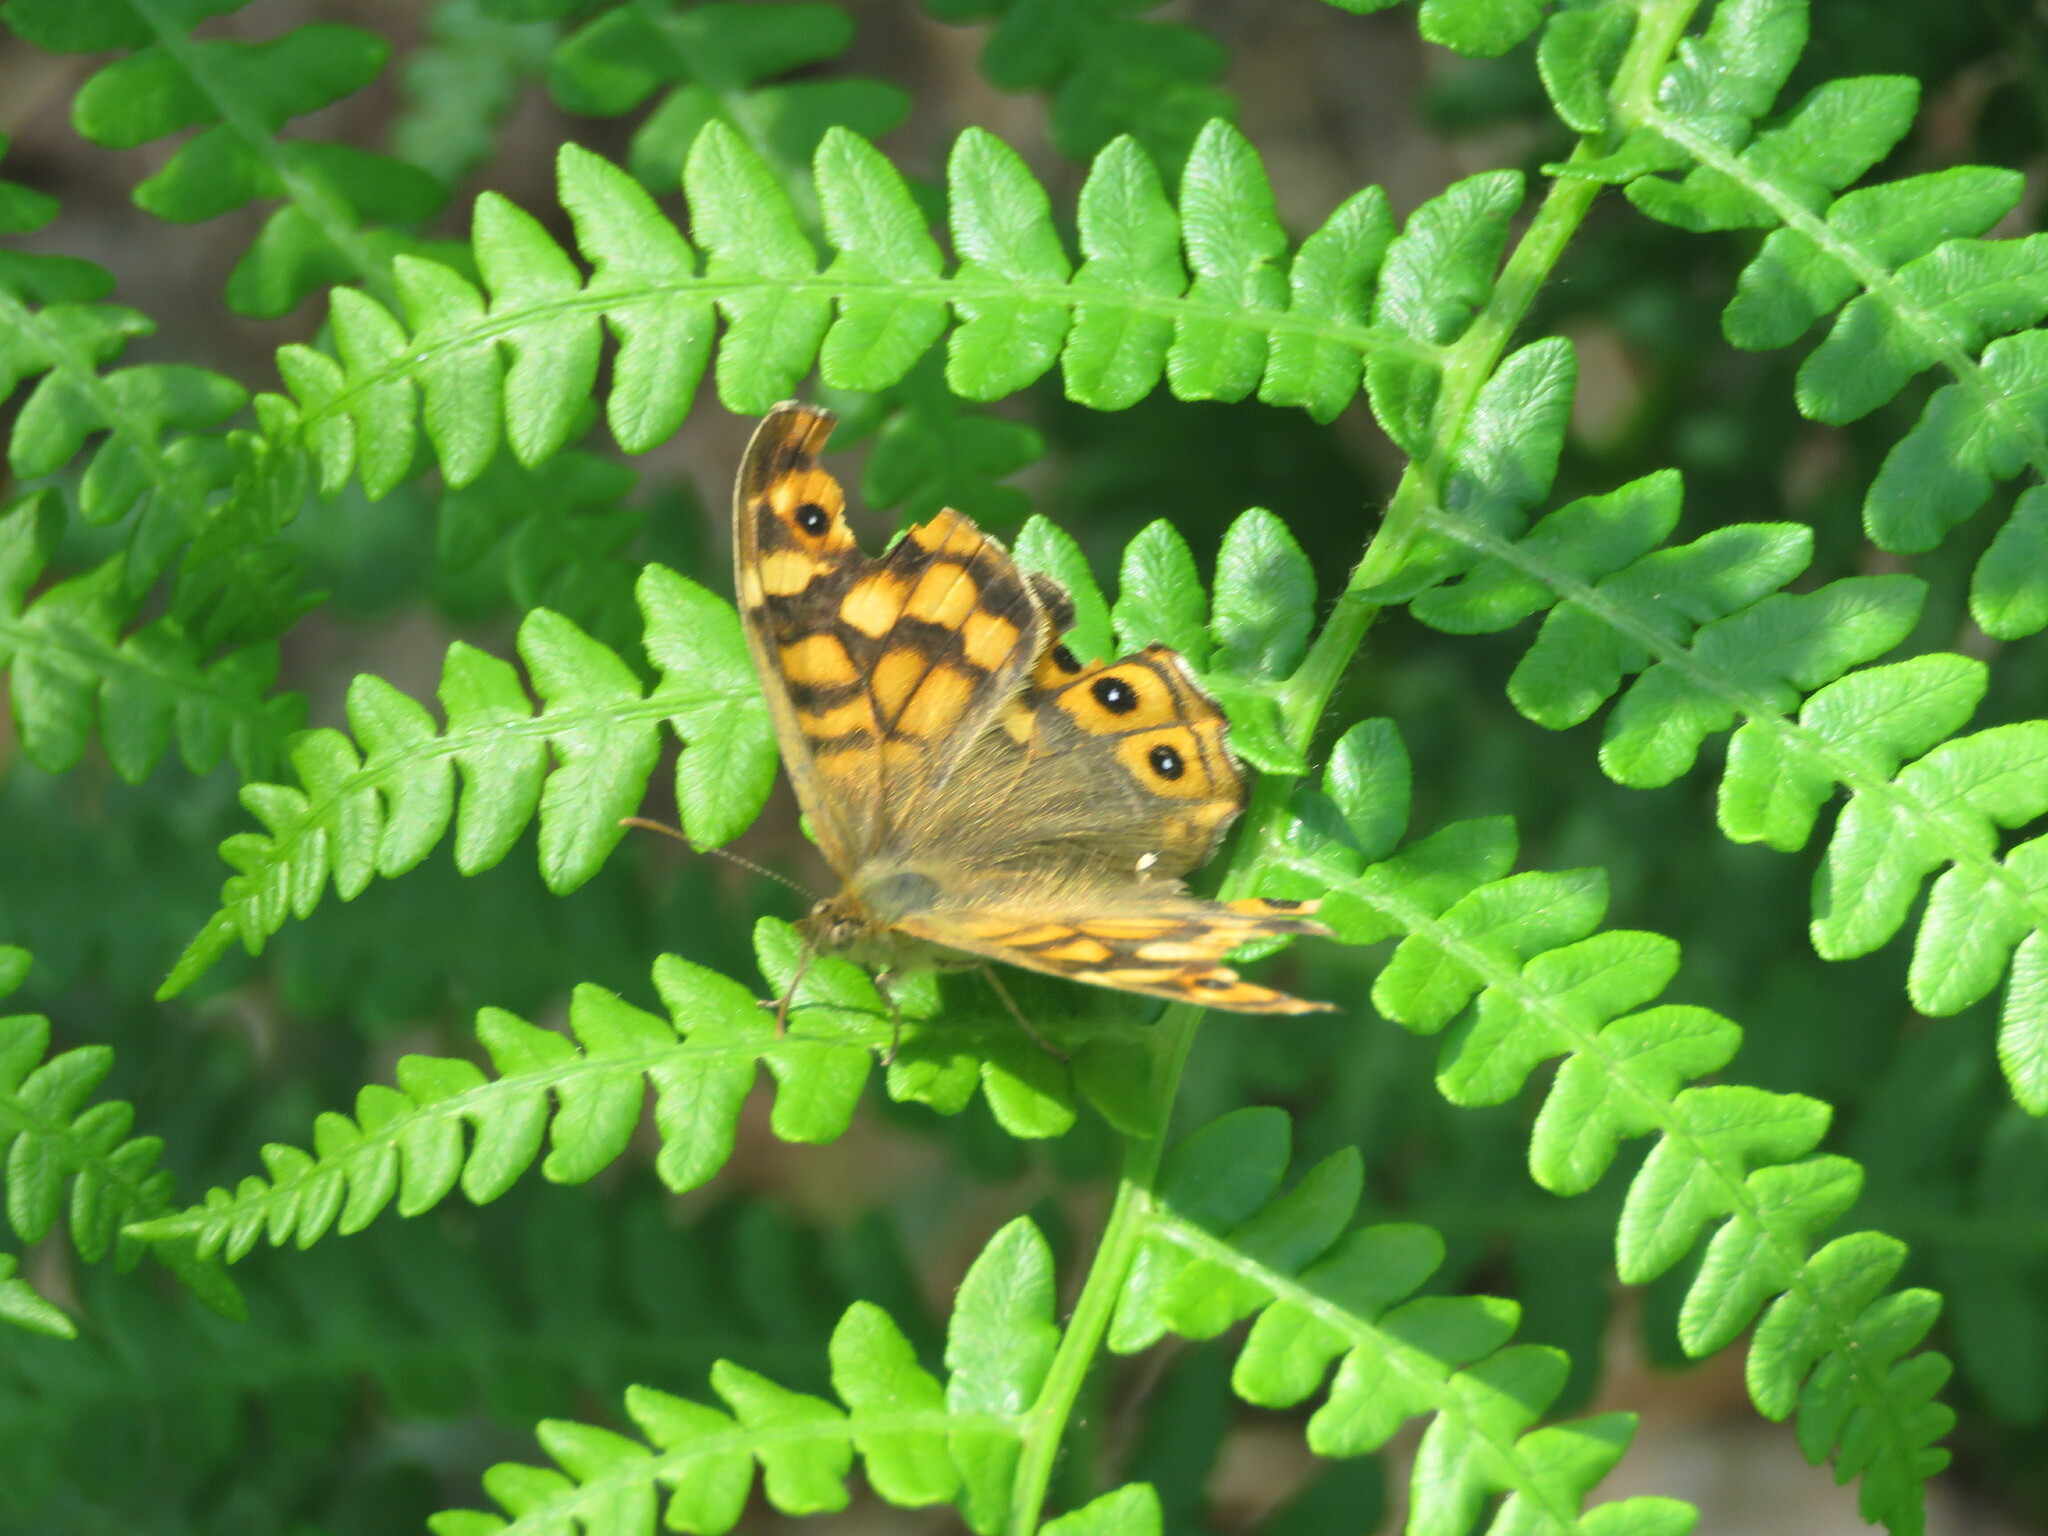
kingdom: Animalia
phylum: Arthropoda
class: Insecta
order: Lepidoptera
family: Nymphalidae
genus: Pararge
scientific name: Pararge aegeria
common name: Speckled wood
